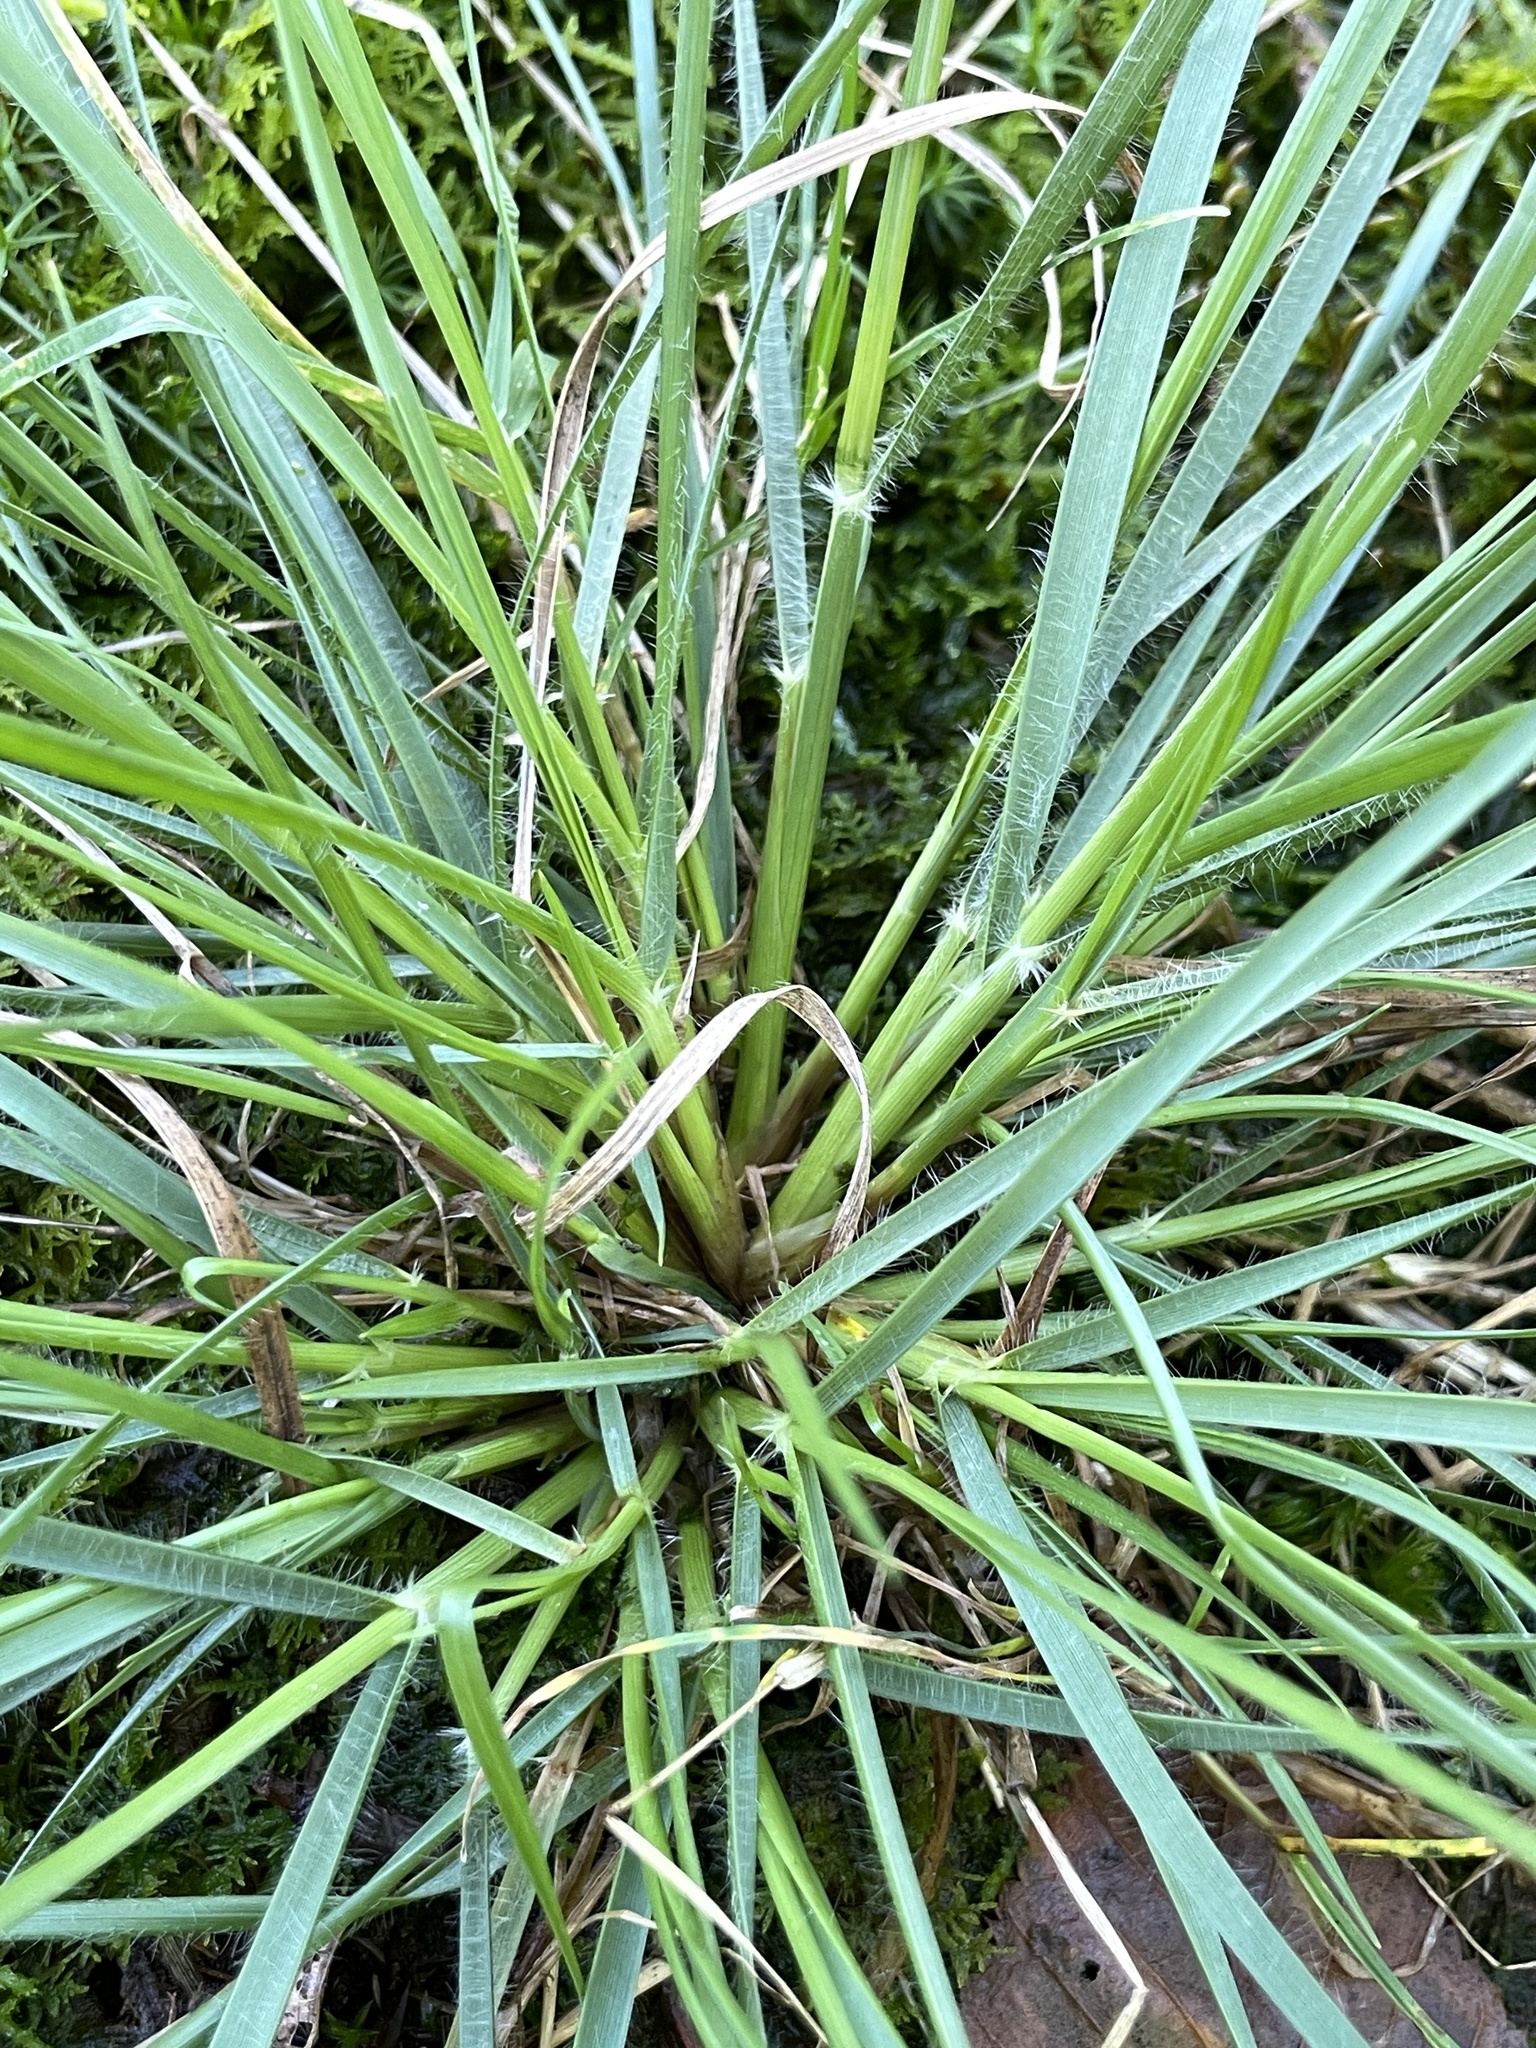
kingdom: Plantae
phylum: Tracheophyta
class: Liliopsida
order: Poales
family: Poaceae
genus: Danthonia
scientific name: Danthonia spicata
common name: Common wild oatgrass
